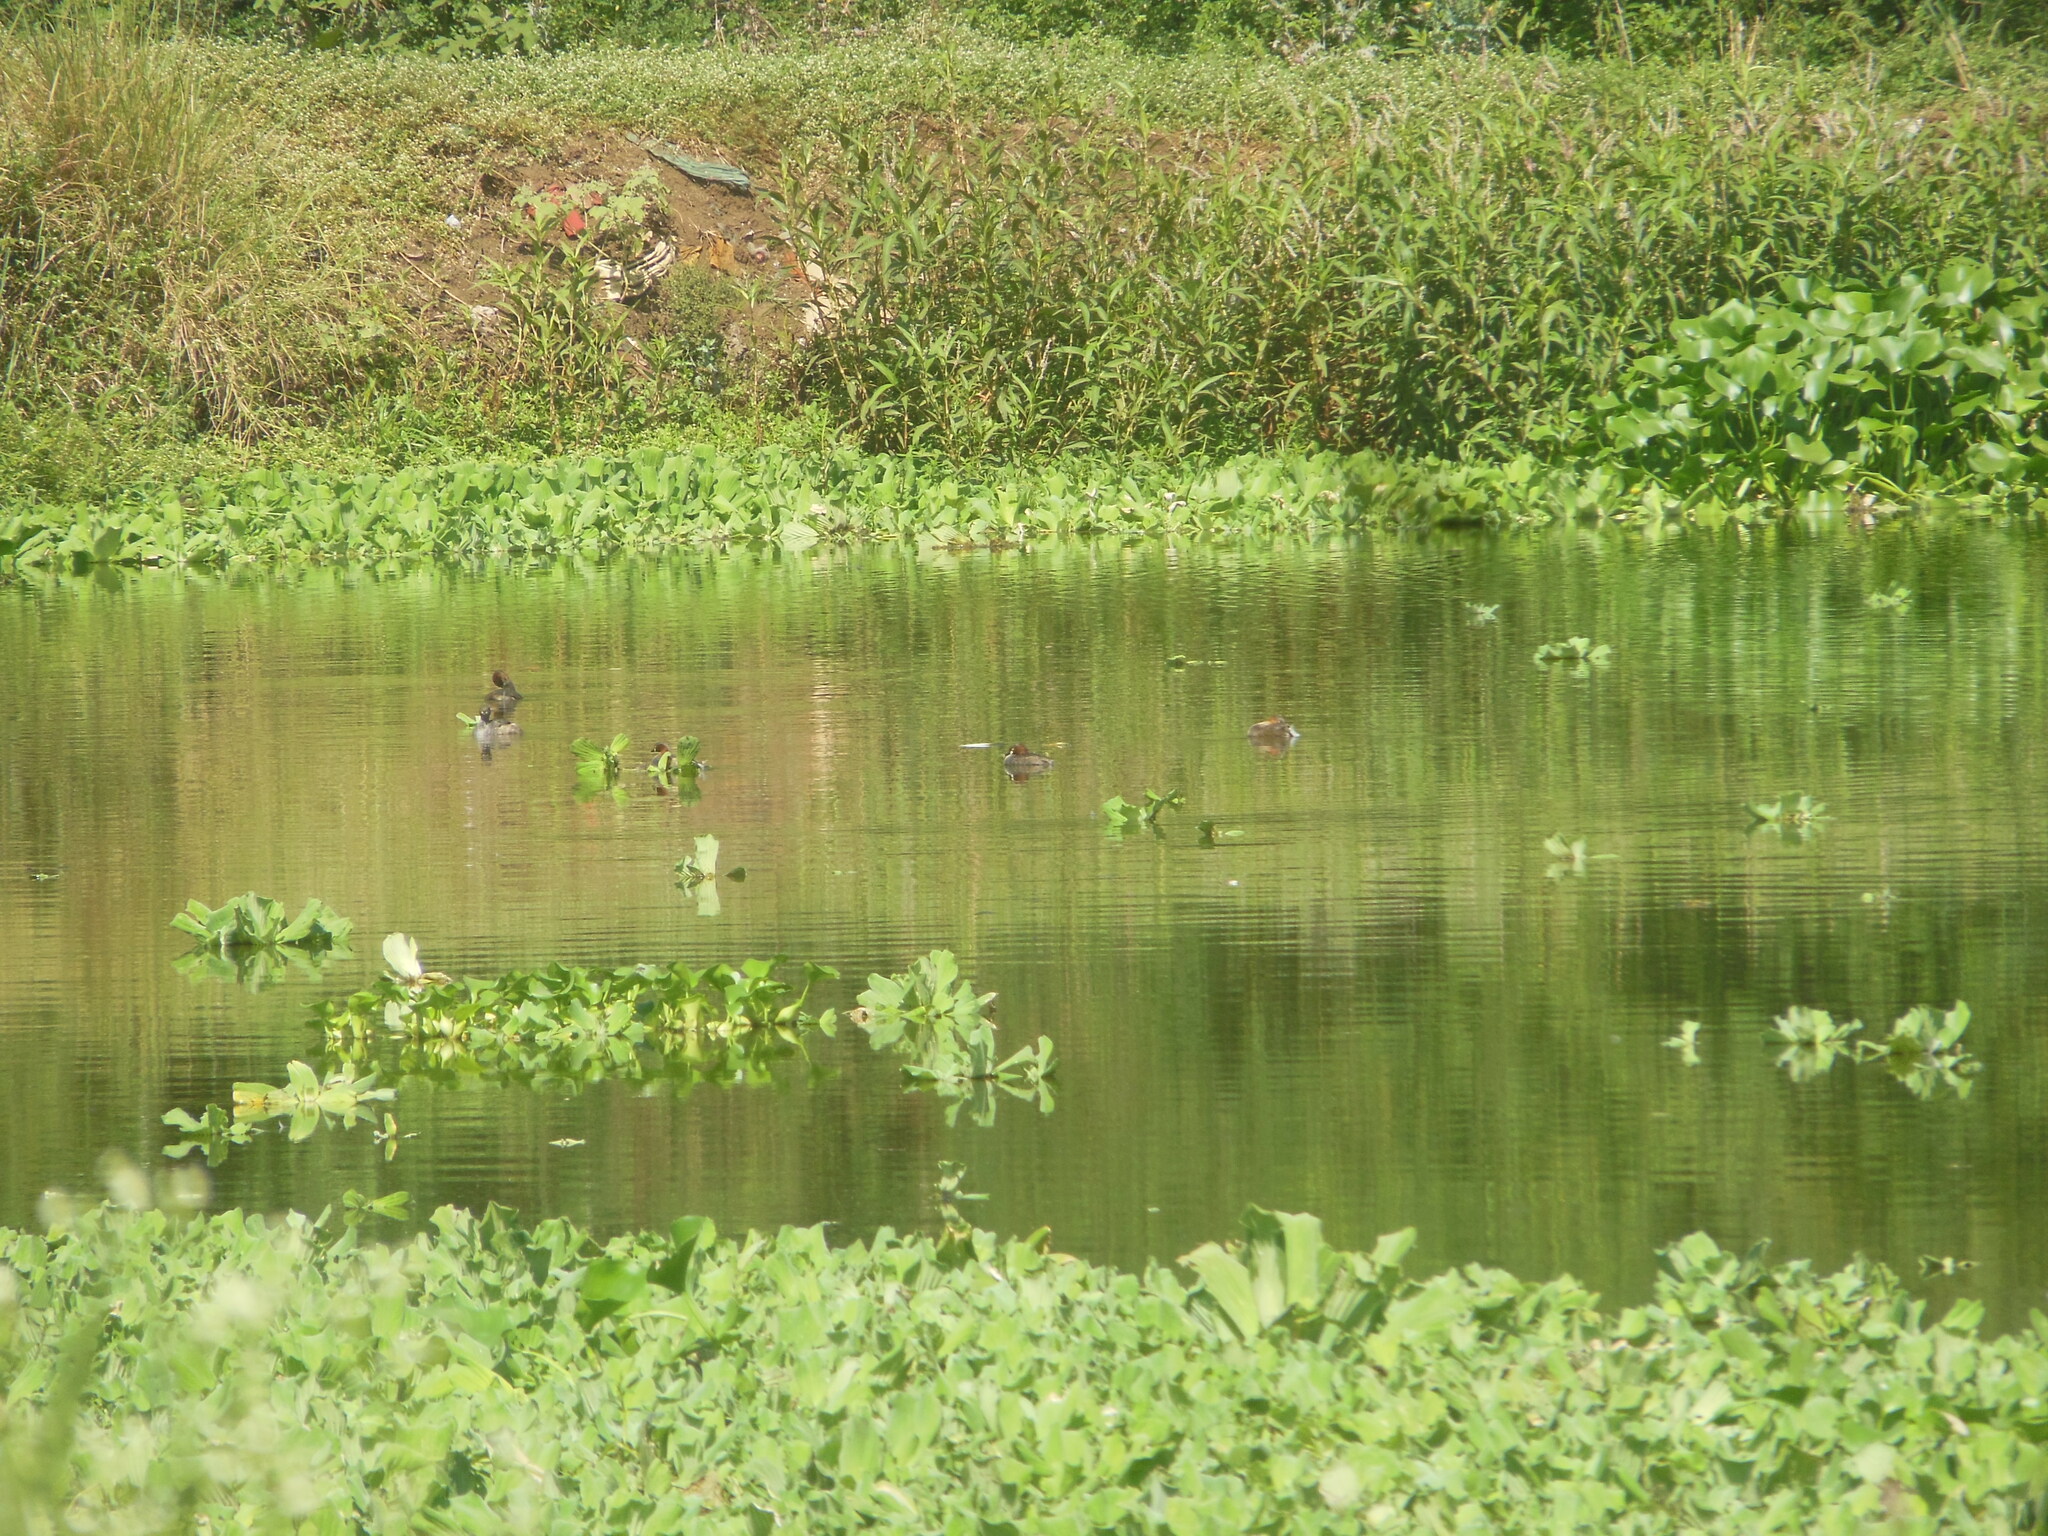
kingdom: Animalia
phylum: Chordata
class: Aves
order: Podicipediformes
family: Podicipedidae
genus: Tachybaptus
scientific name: Tachybaptus ruficollis
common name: Little grebe
